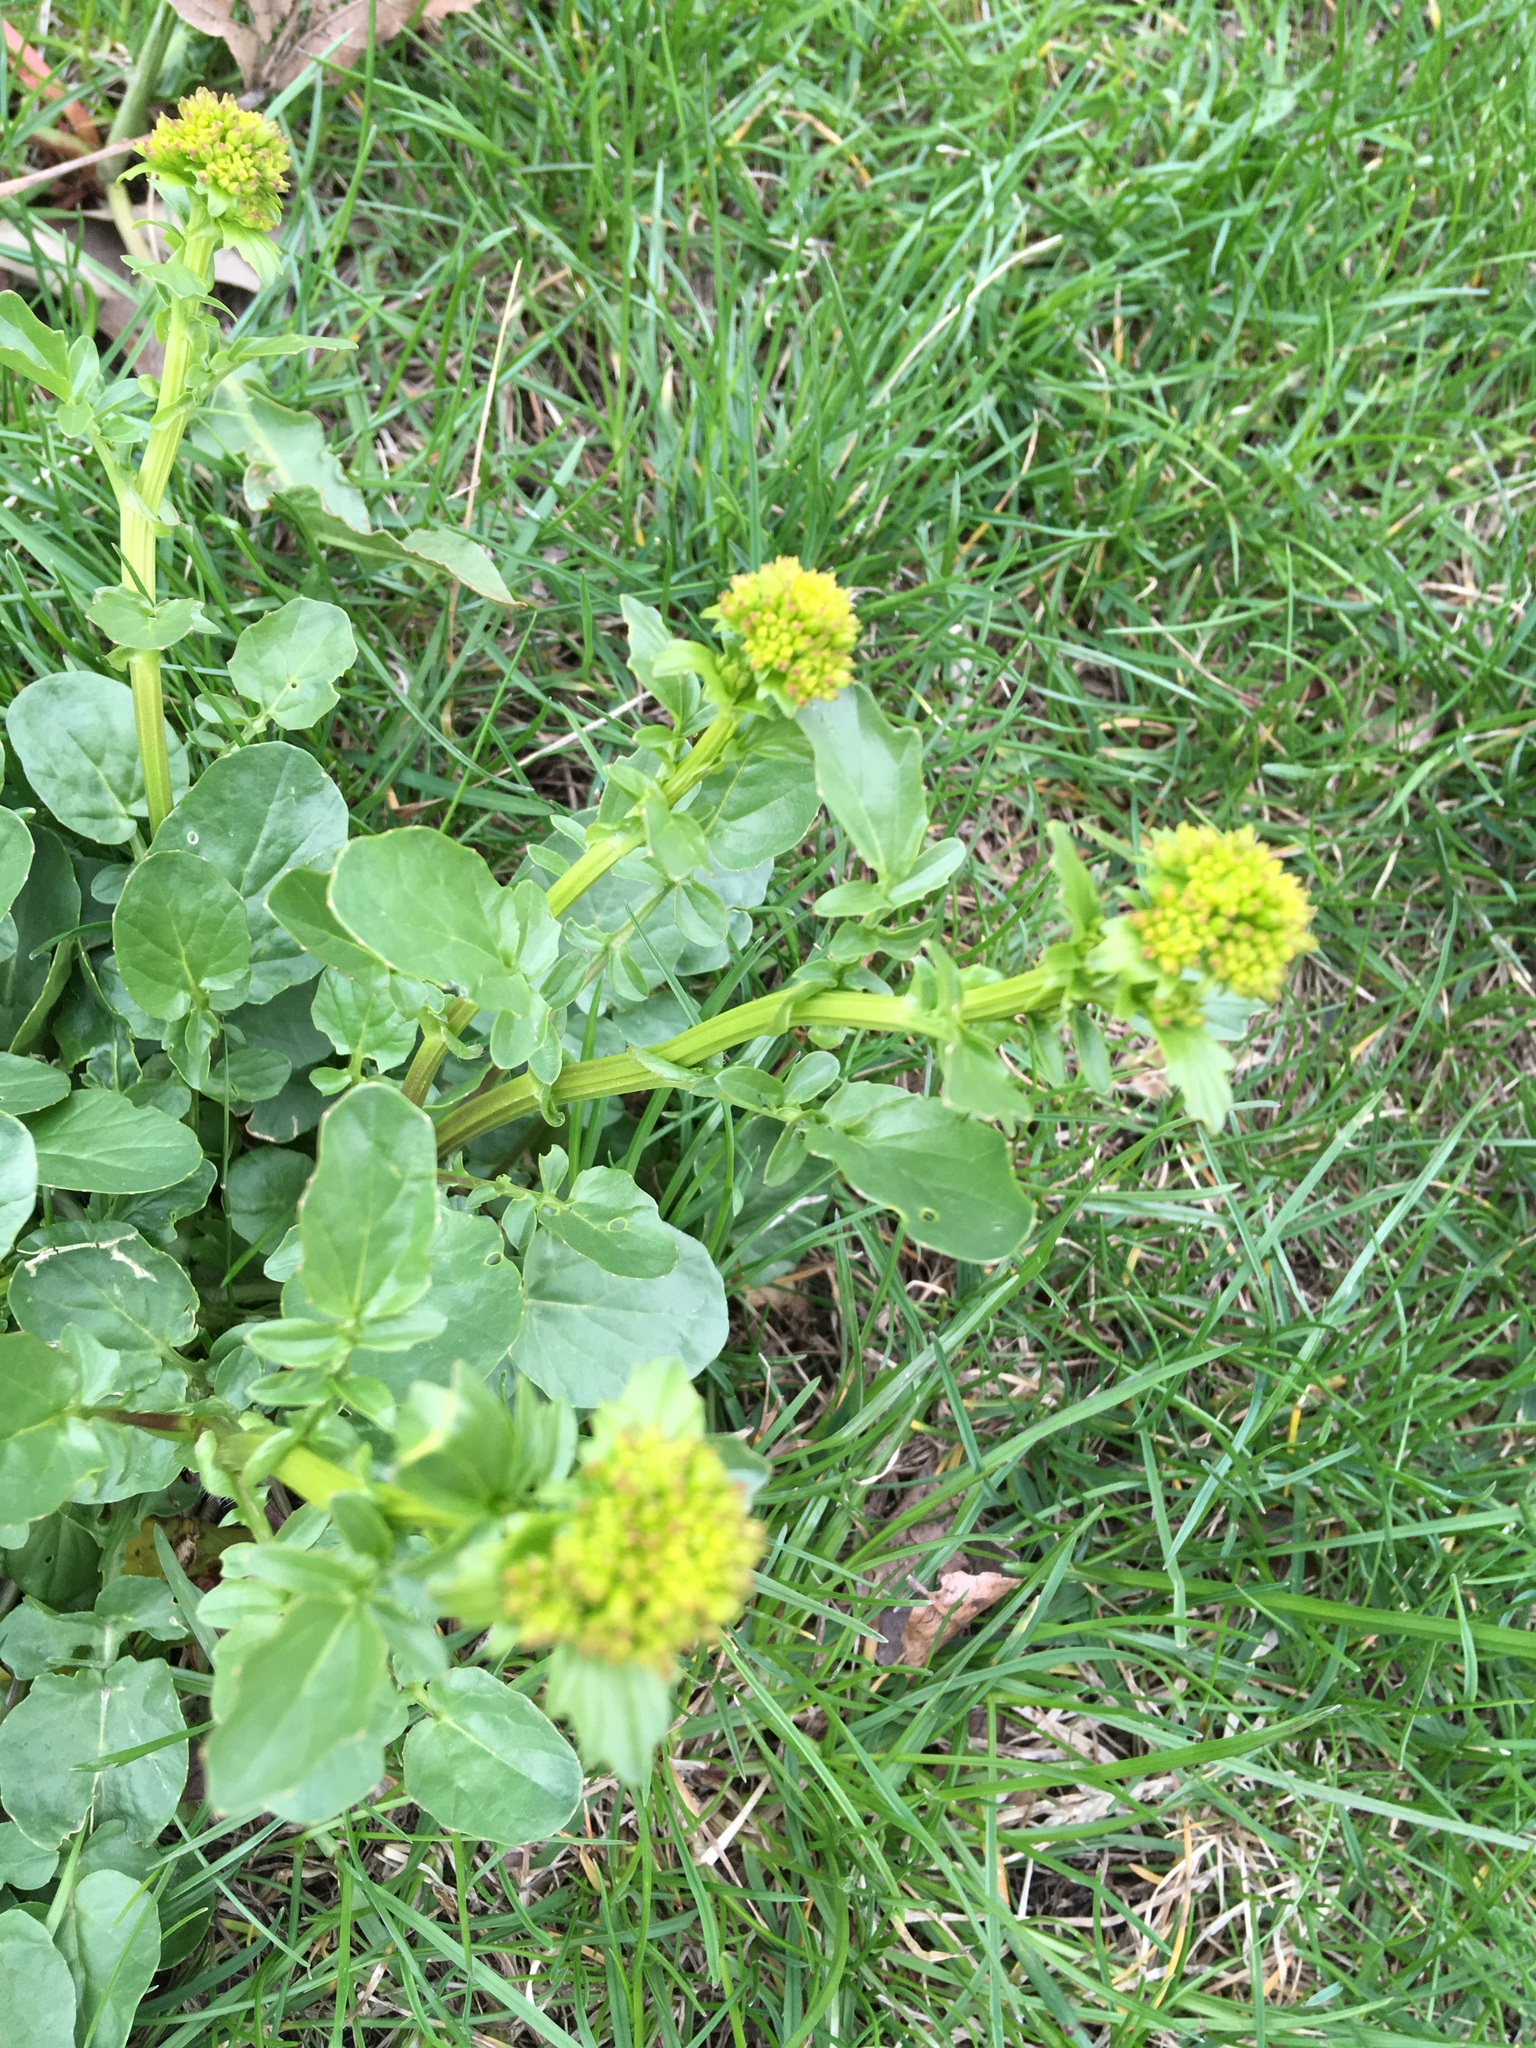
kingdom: Plantae
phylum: Tracheophyta
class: Magnoliopsida
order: Brassicales
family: Brassicaceae
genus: Barbarea
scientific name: Barbarea vulgaris
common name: Cressy-greens
